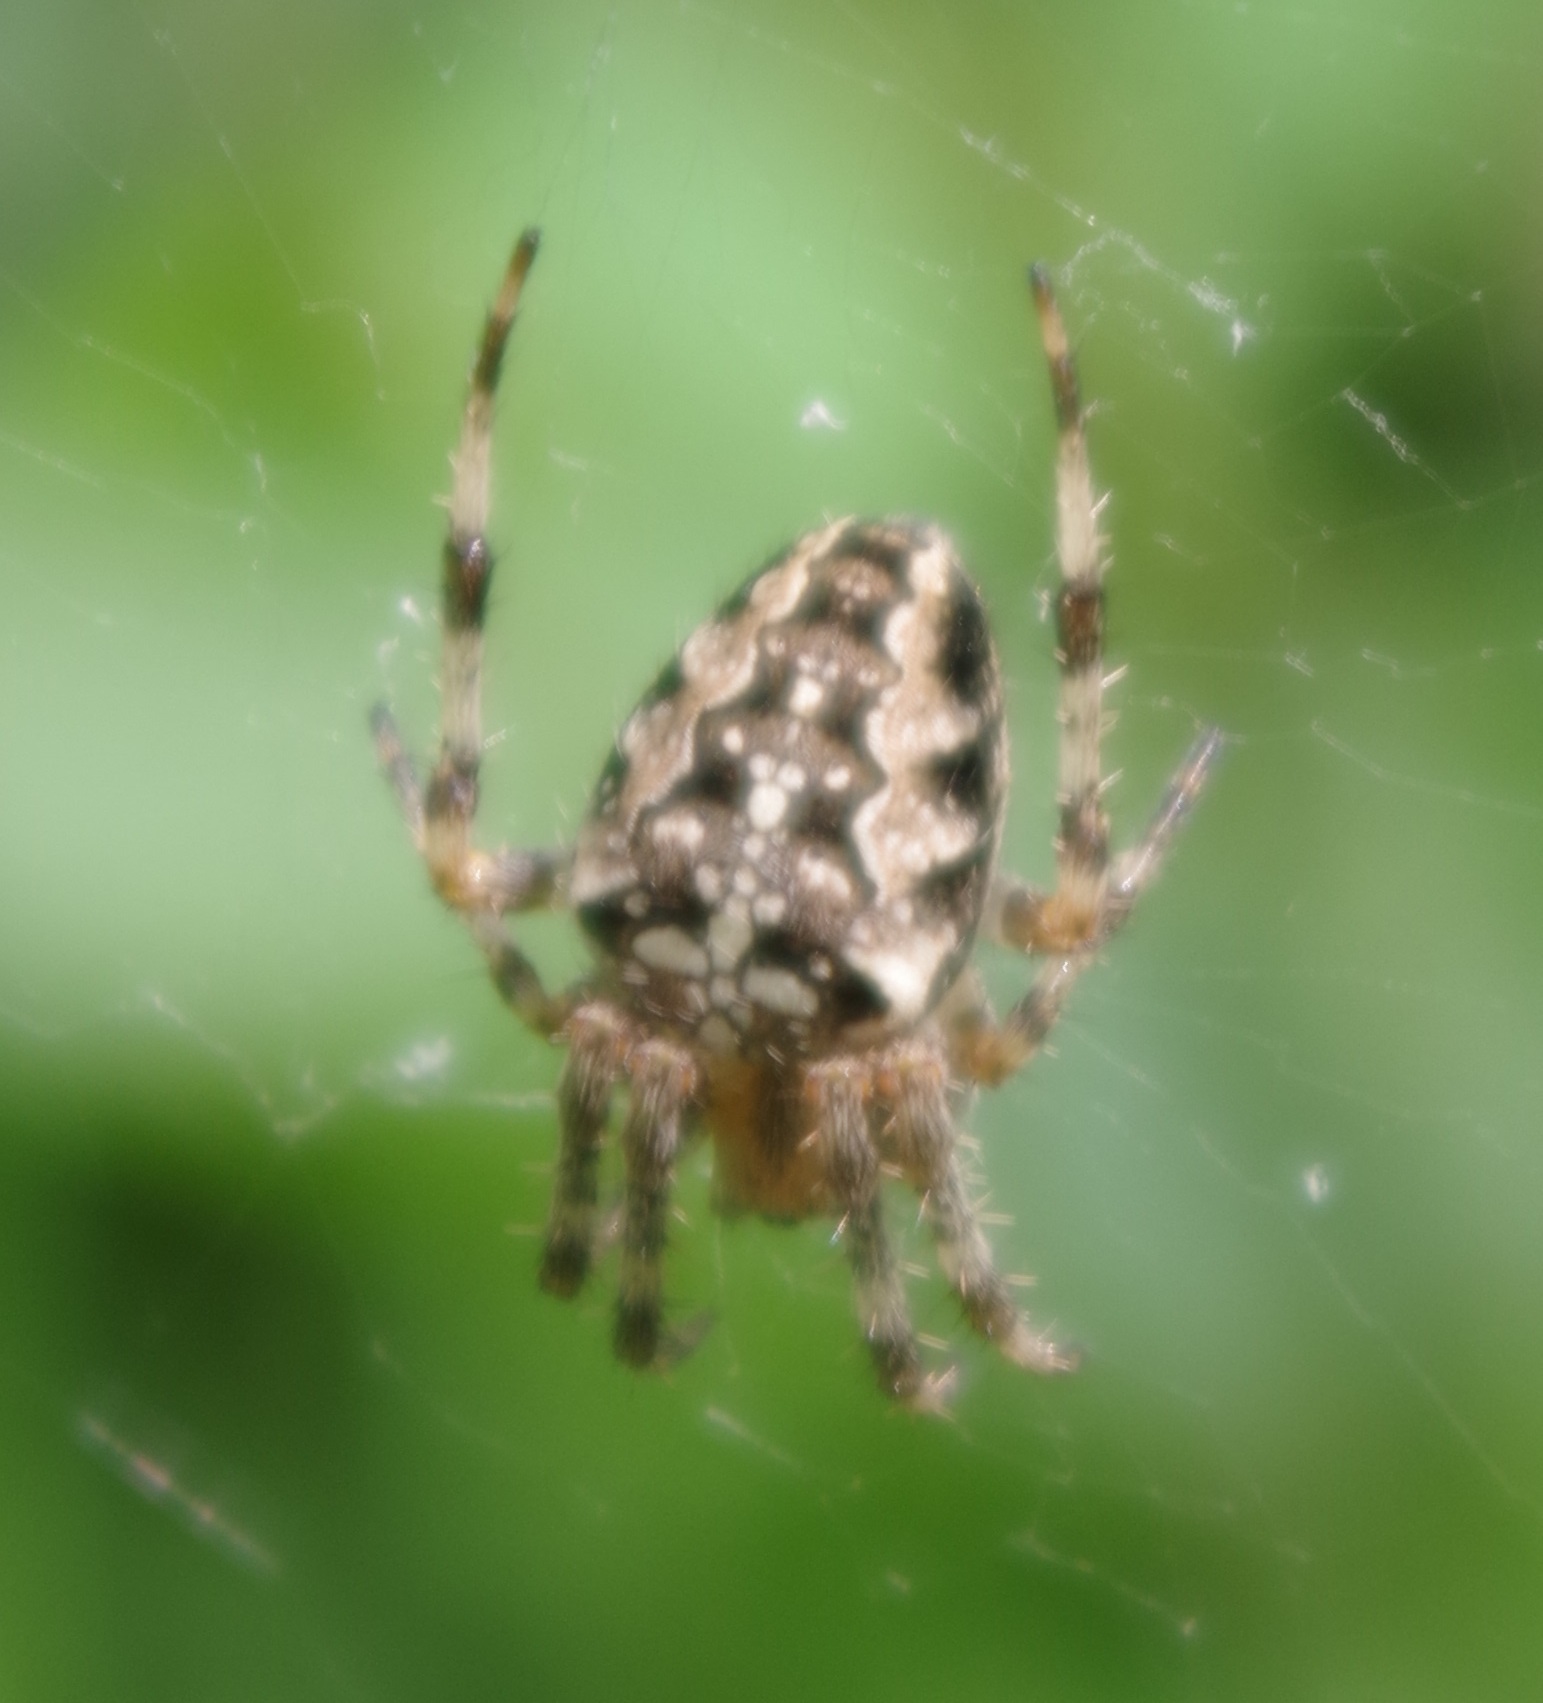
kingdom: Animalia
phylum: Arthropoda
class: Arachnida
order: Araneae
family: Araneidae
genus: Araneus
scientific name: Araneus diadematus
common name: Cross orbweaver
